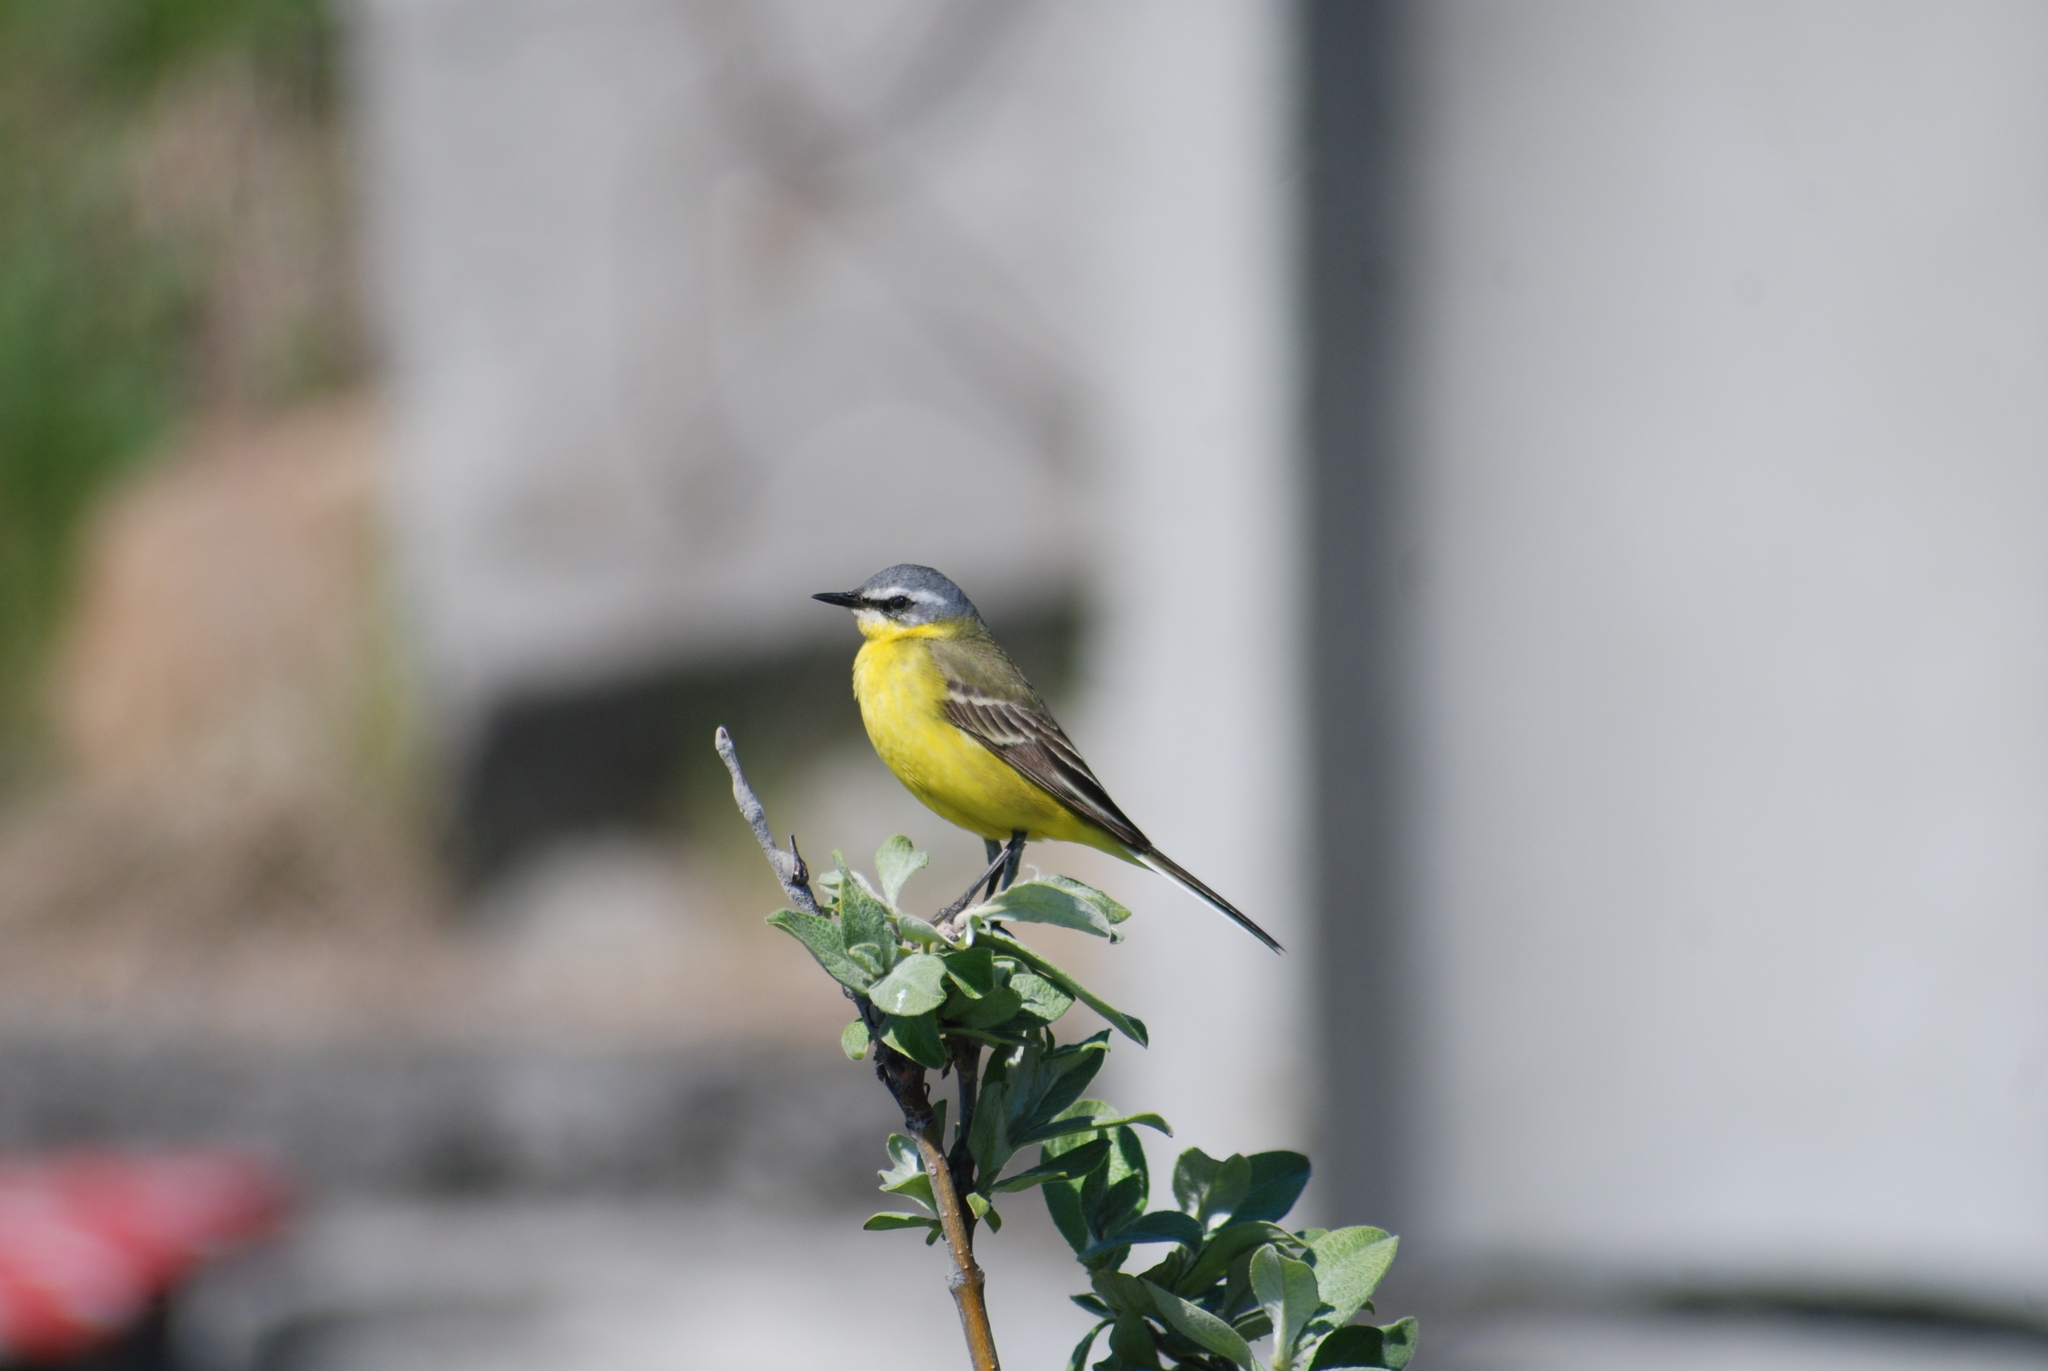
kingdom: Animalia
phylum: Chordata
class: Aves
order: Passeriformes
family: Motacillidae
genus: Motacilla
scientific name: Motacilla tschutschensis
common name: Eastern yellow wagtail
